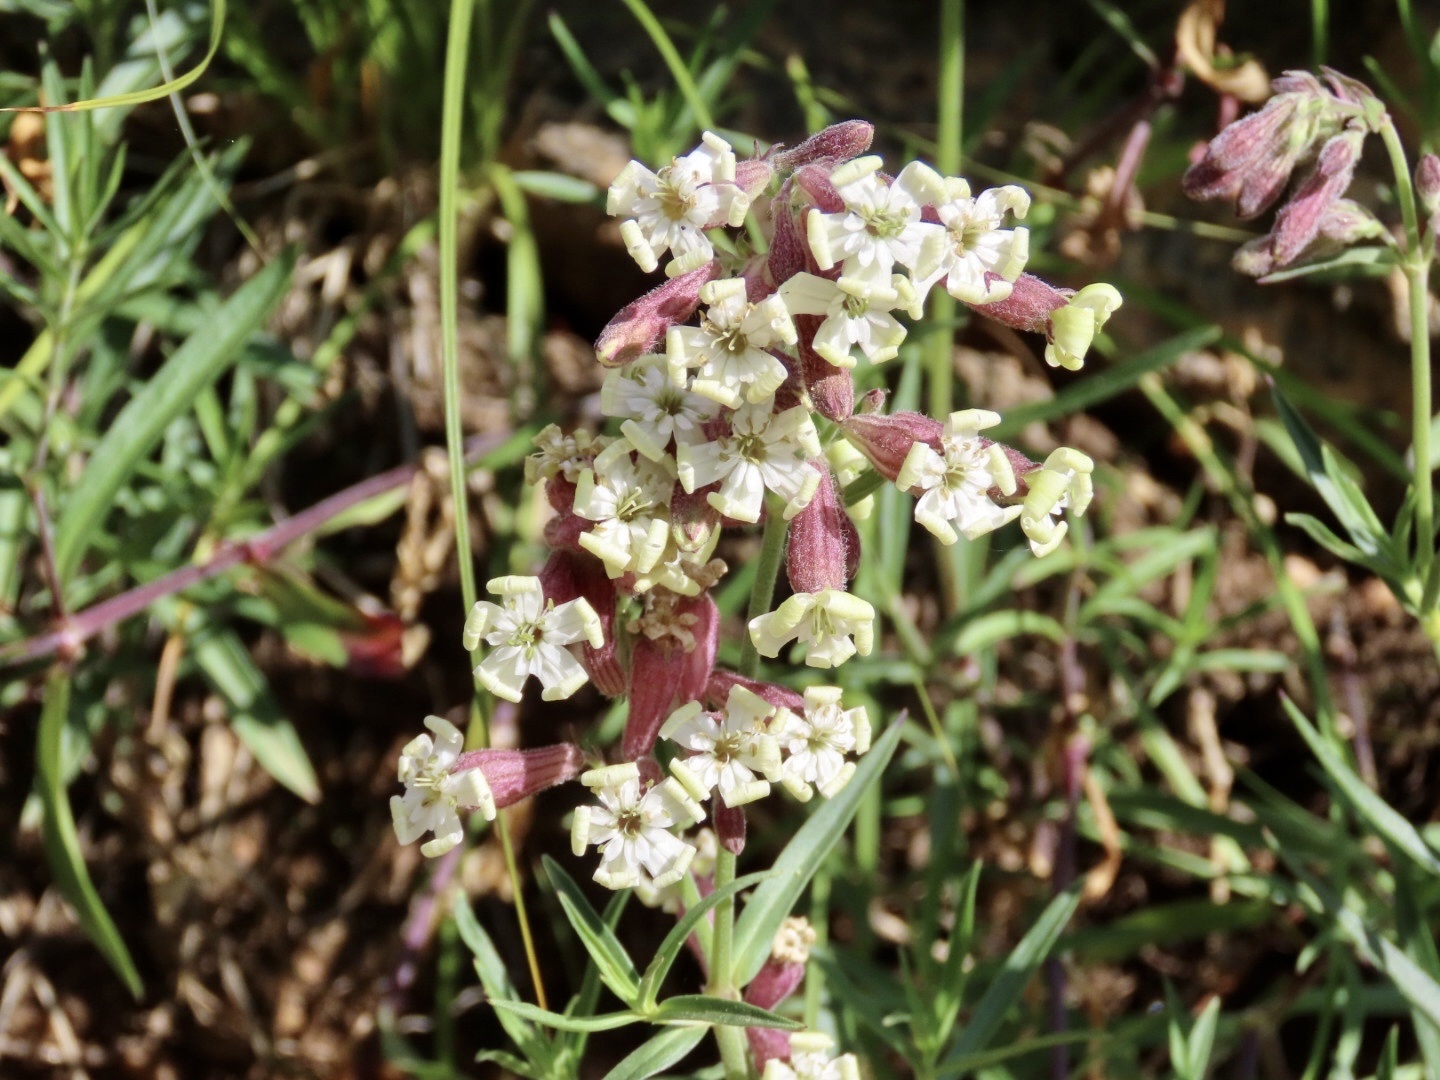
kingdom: Plantae
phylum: Tracheophyta
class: Magnoliopsida
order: Caryophyllales
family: Caryophyllaceae
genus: Silene
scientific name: Silene amoena
